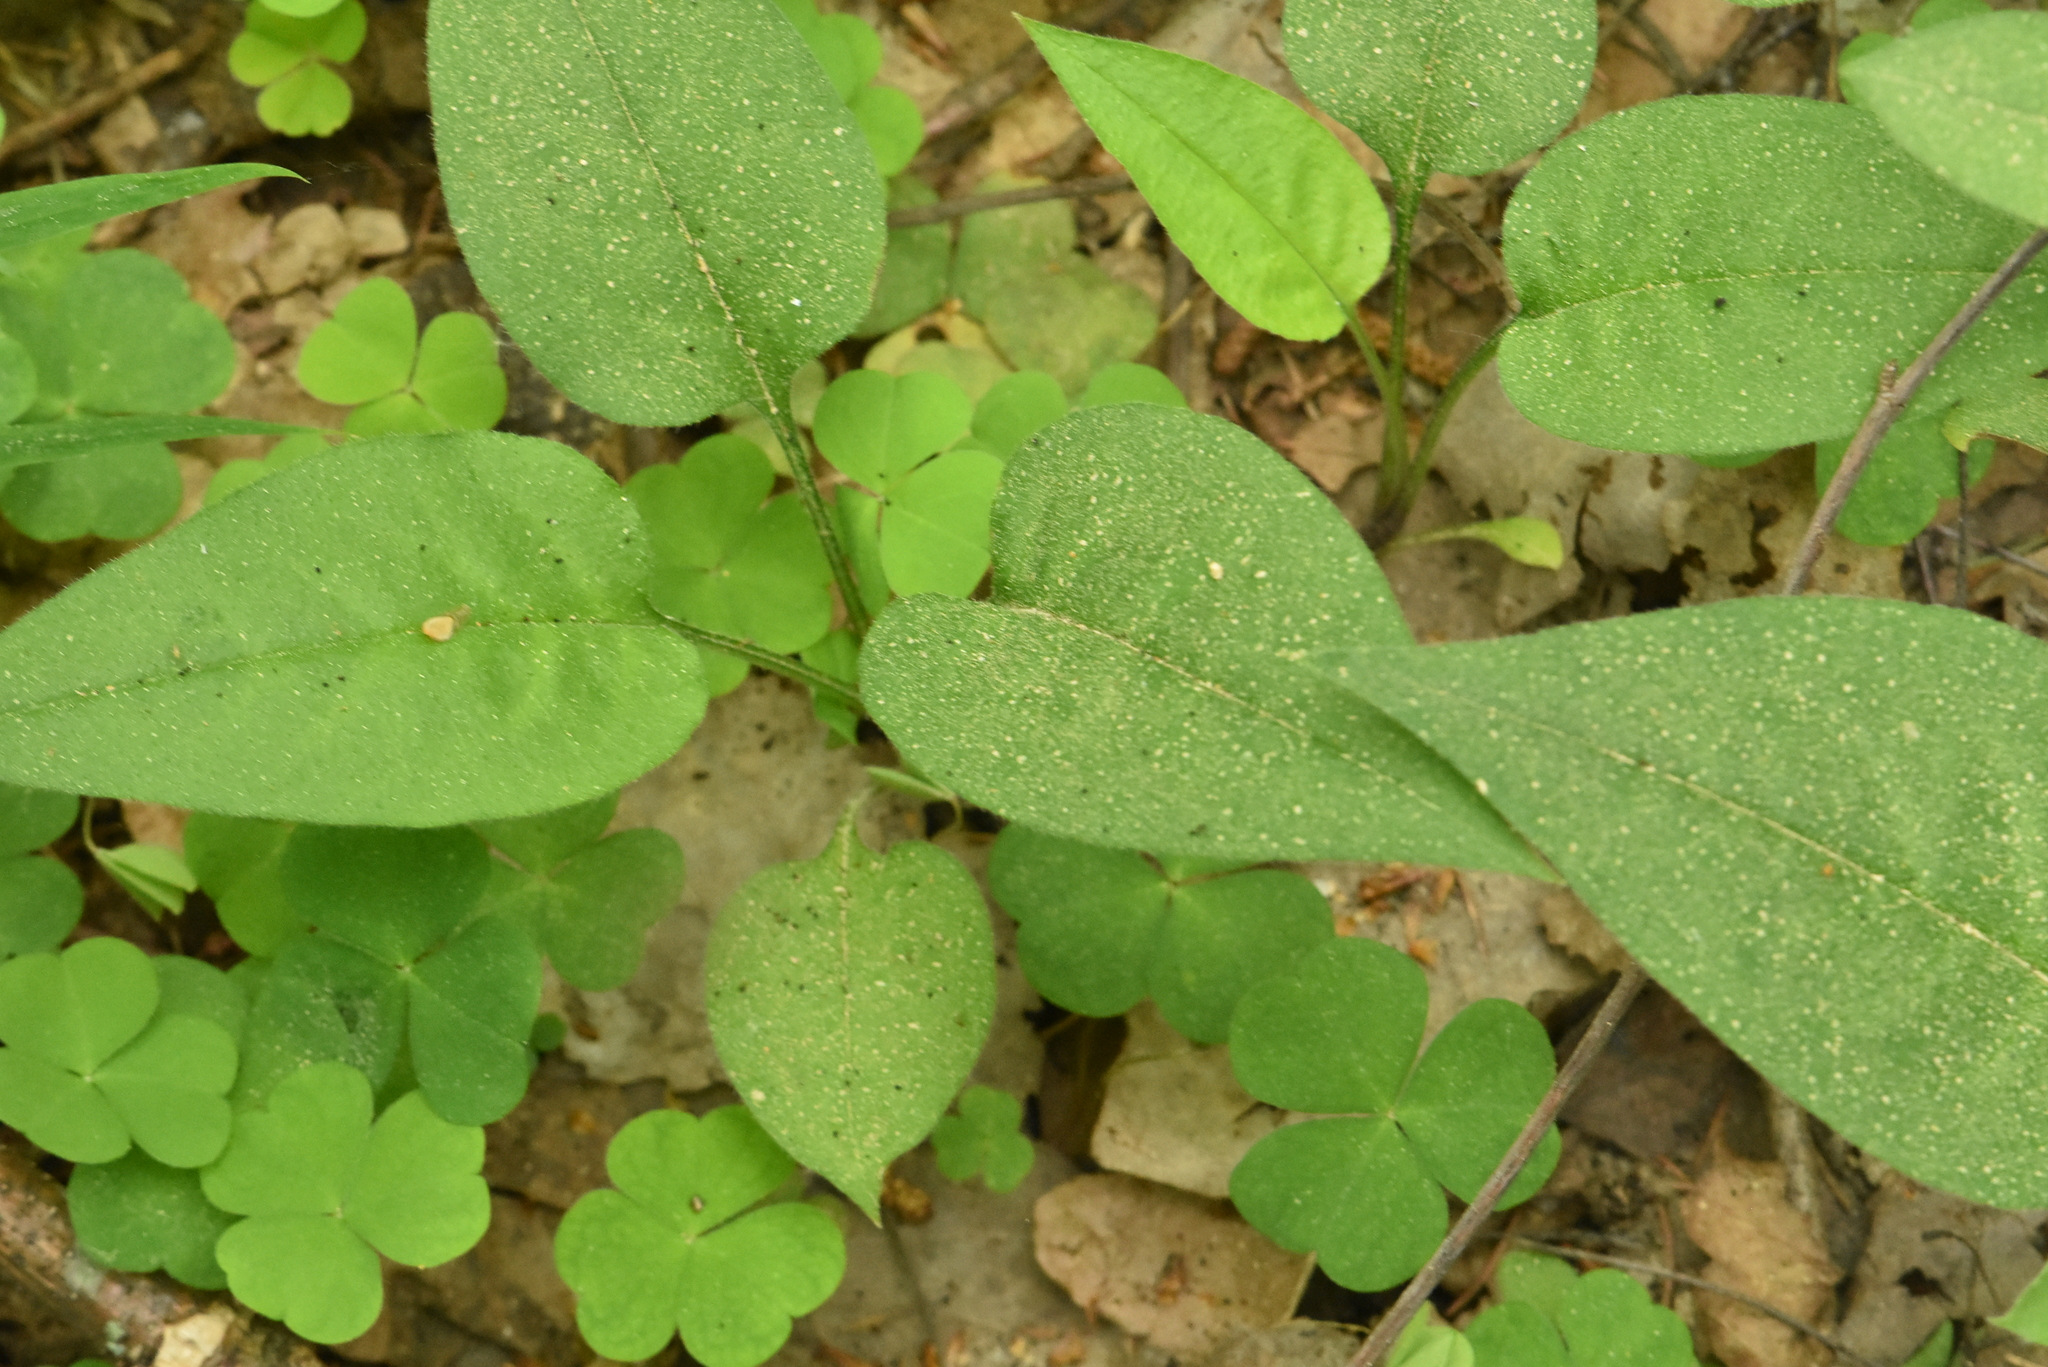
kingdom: Plantae
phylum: Tracheophyta
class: Magnoliopsida
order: Boraginales
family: Boraginaceae
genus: Pulmonaria
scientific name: Pulmonaria obscura
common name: Suffolk lungwort
